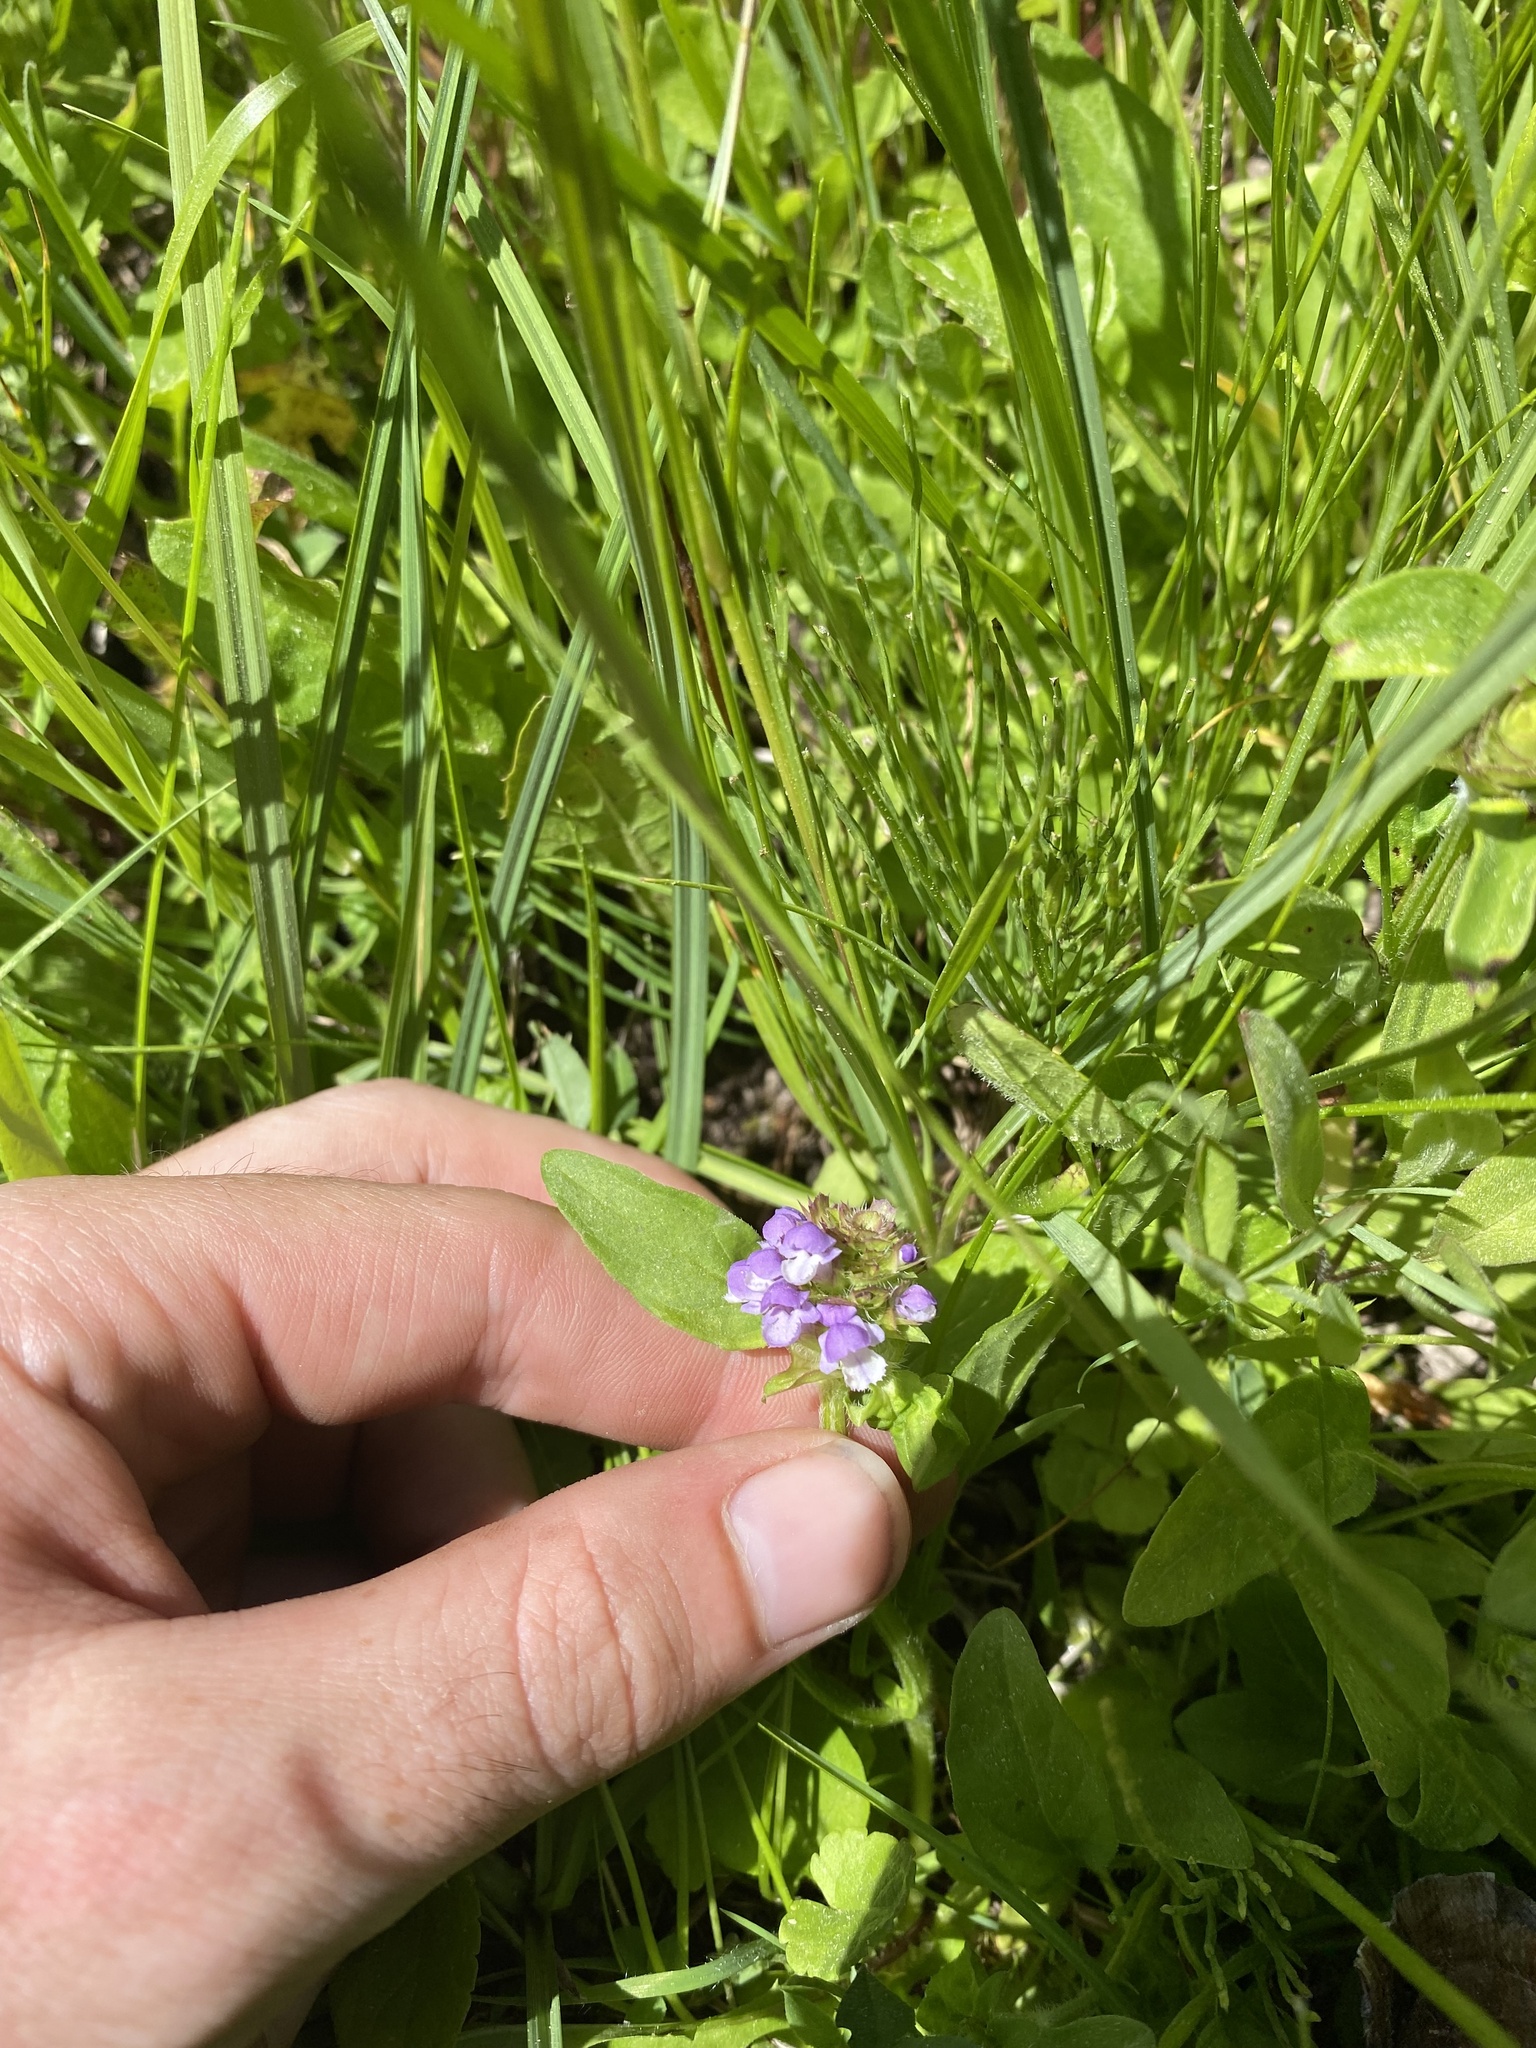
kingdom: Plantae
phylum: Tracheophyta
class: Magnoliopsida
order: Lamiales
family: Lamiaceae
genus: Prunella
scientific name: Prunella vulgaris
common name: Heal-all
